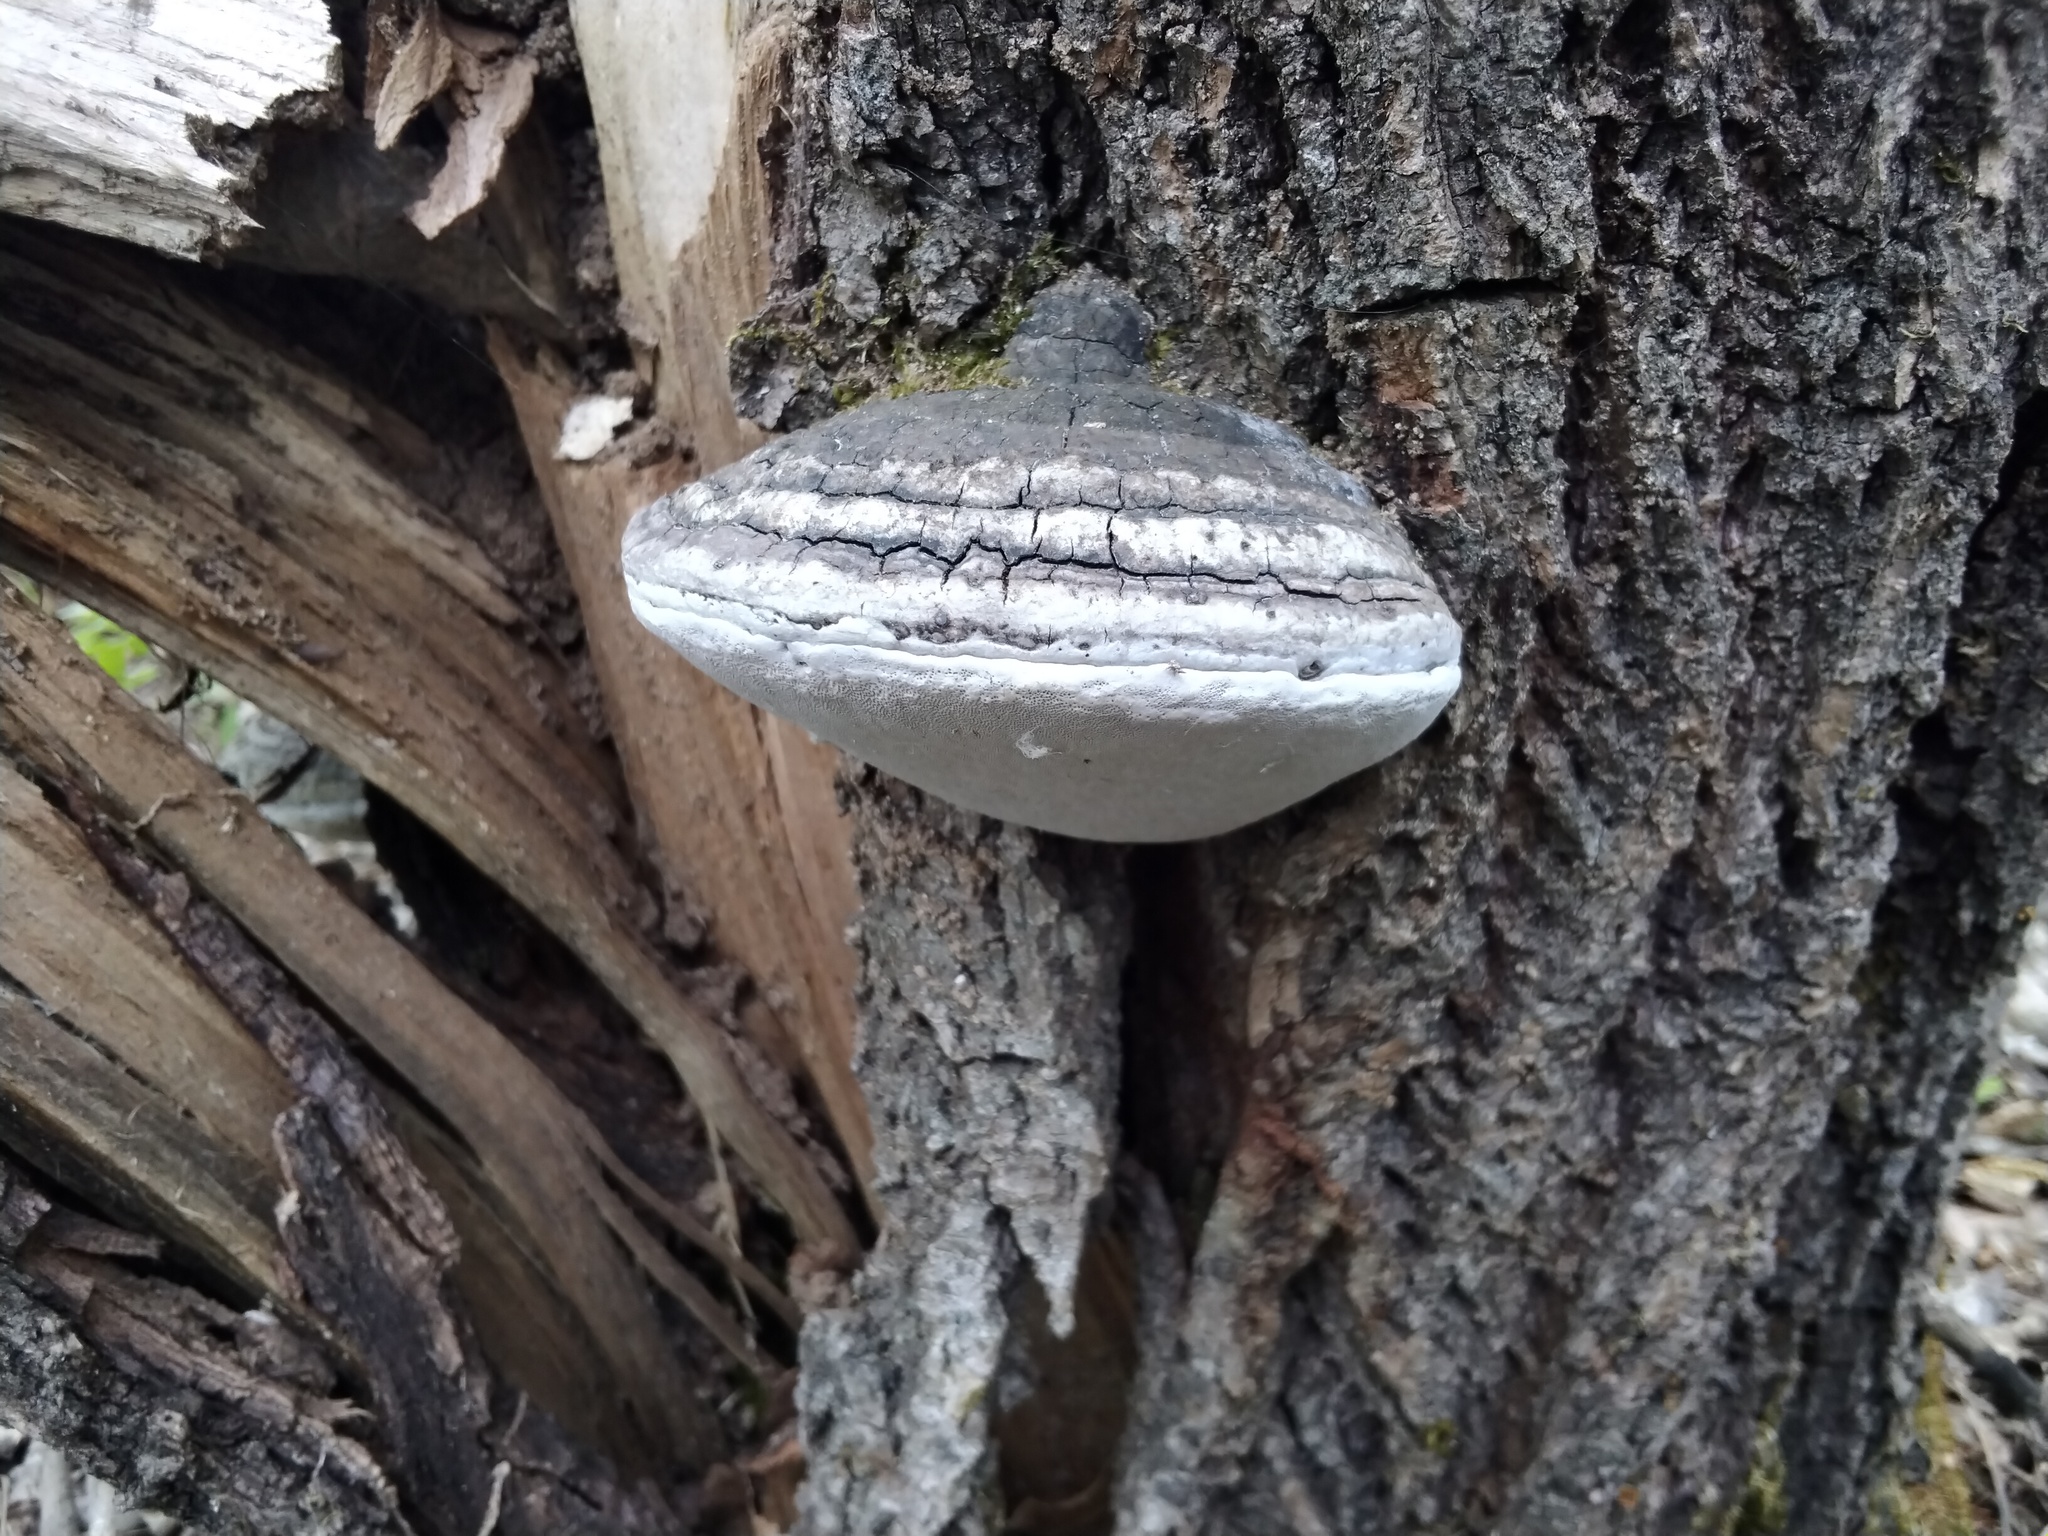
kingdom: Fungi
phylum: Basidiomycota
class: Agaricomycetes
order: Hymenochaetales
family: Hymenochaetaceae
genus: Phellinus
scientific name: Phellinus igniarius
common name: Willow bracket
